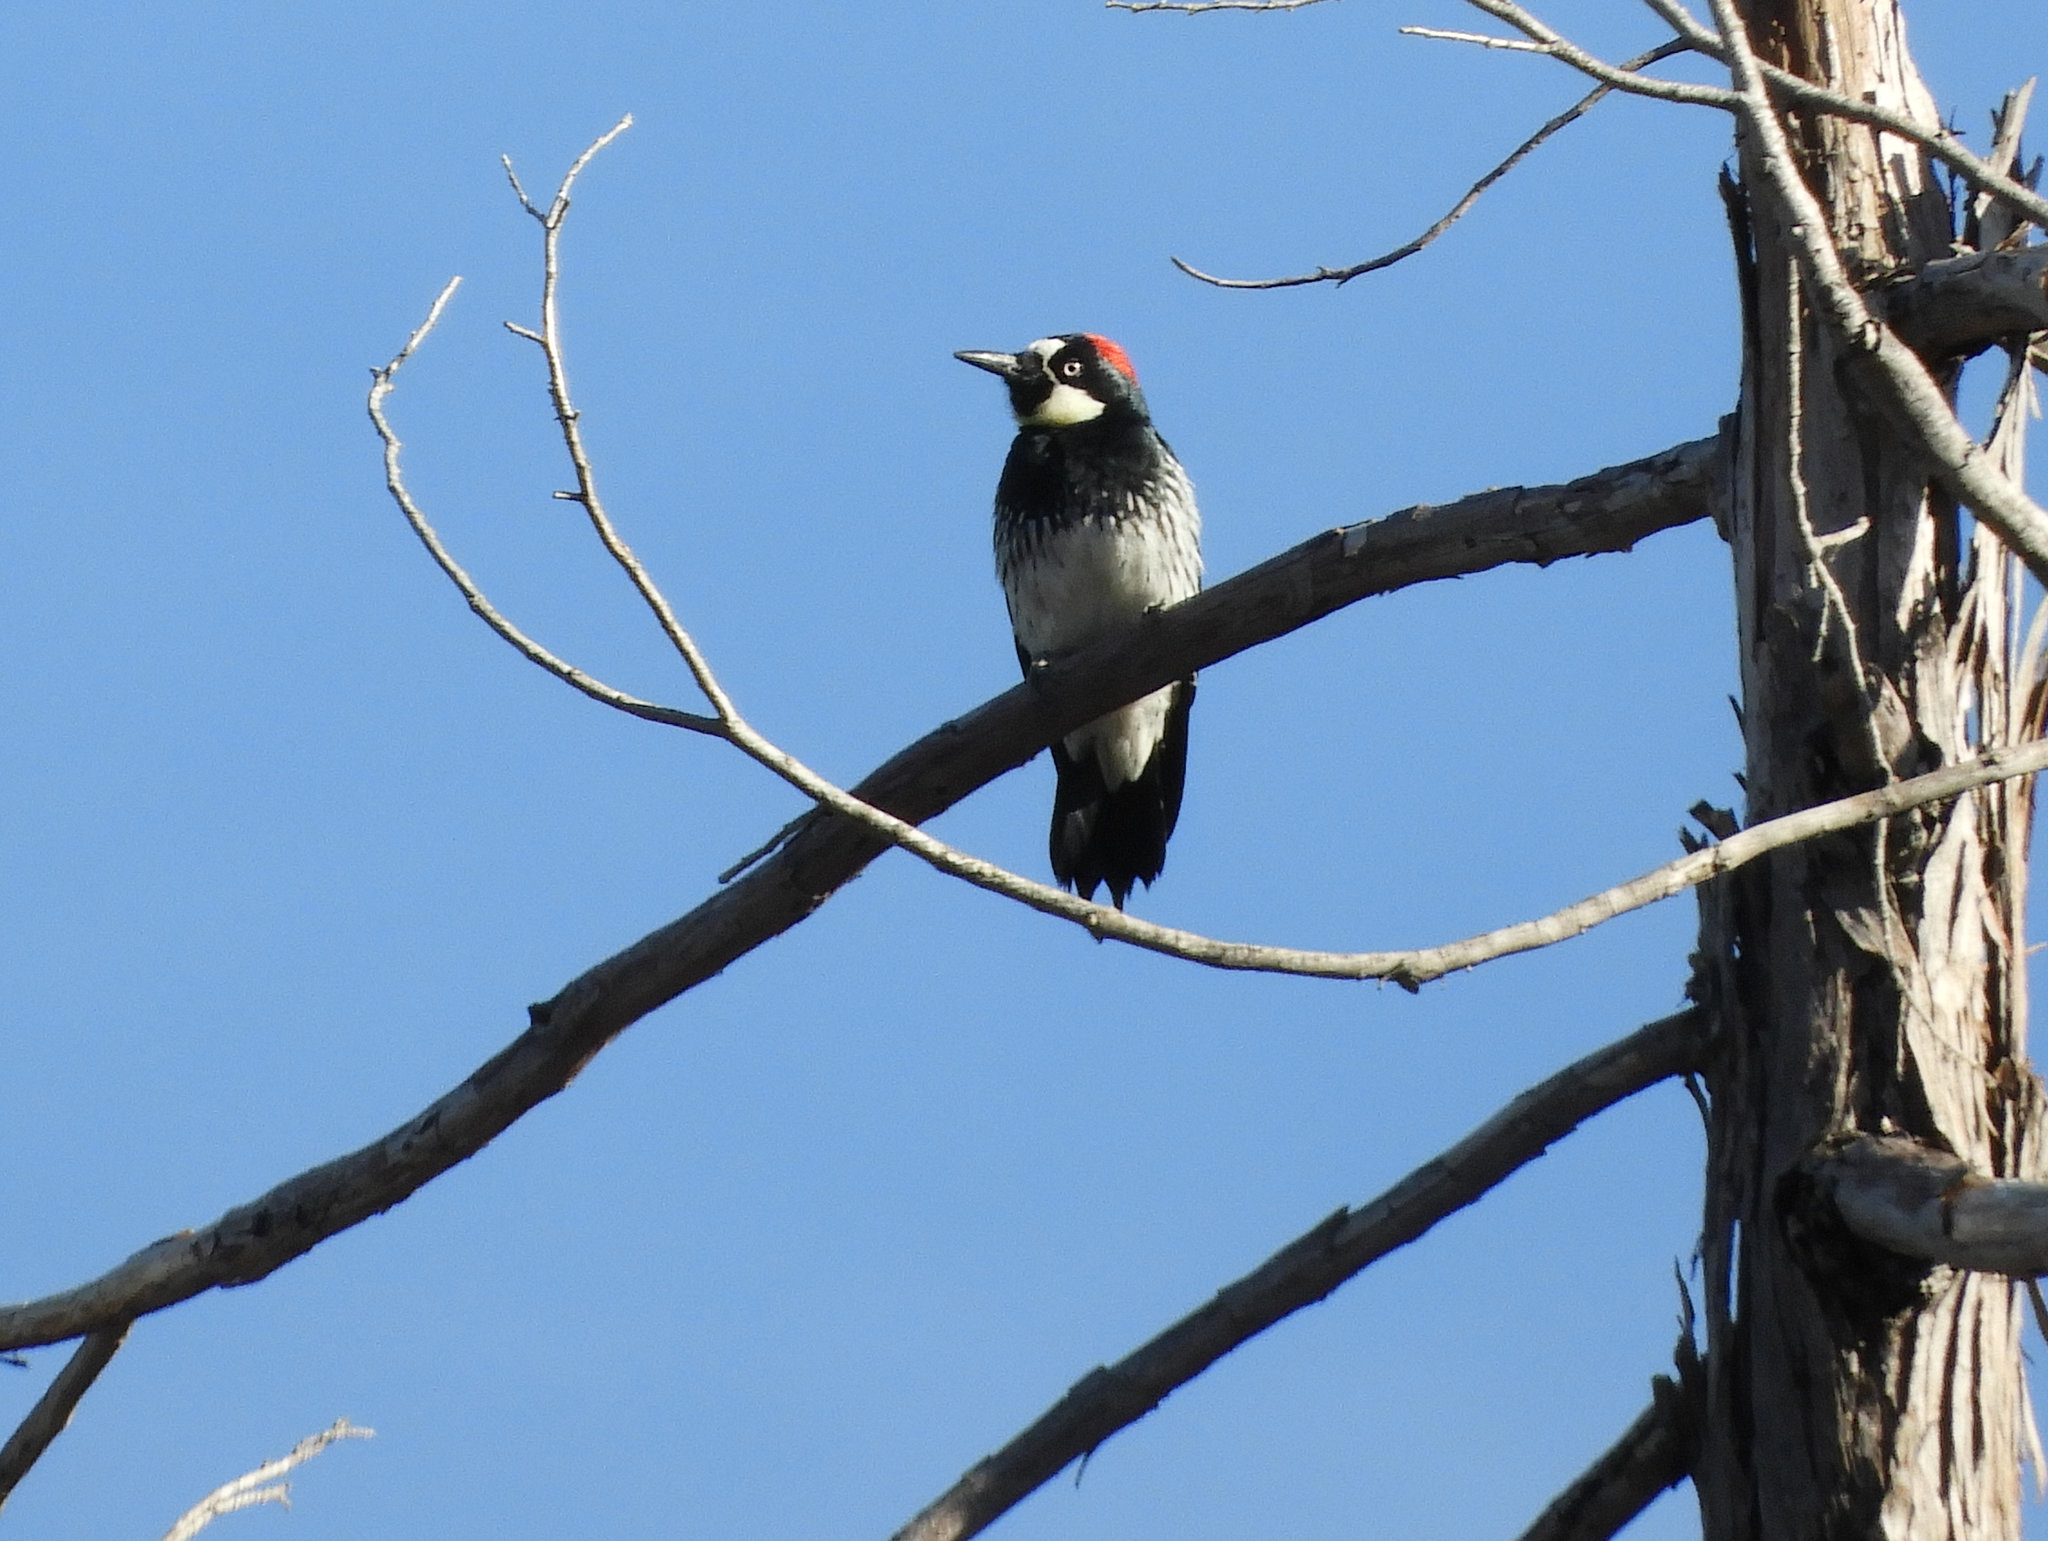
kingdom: Animalia
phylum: Chordata
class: Aves
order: Piciformes
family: Picidae
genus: Melanerpes
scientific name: Melanerpes formicivorus
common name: Acorn woodpecker
